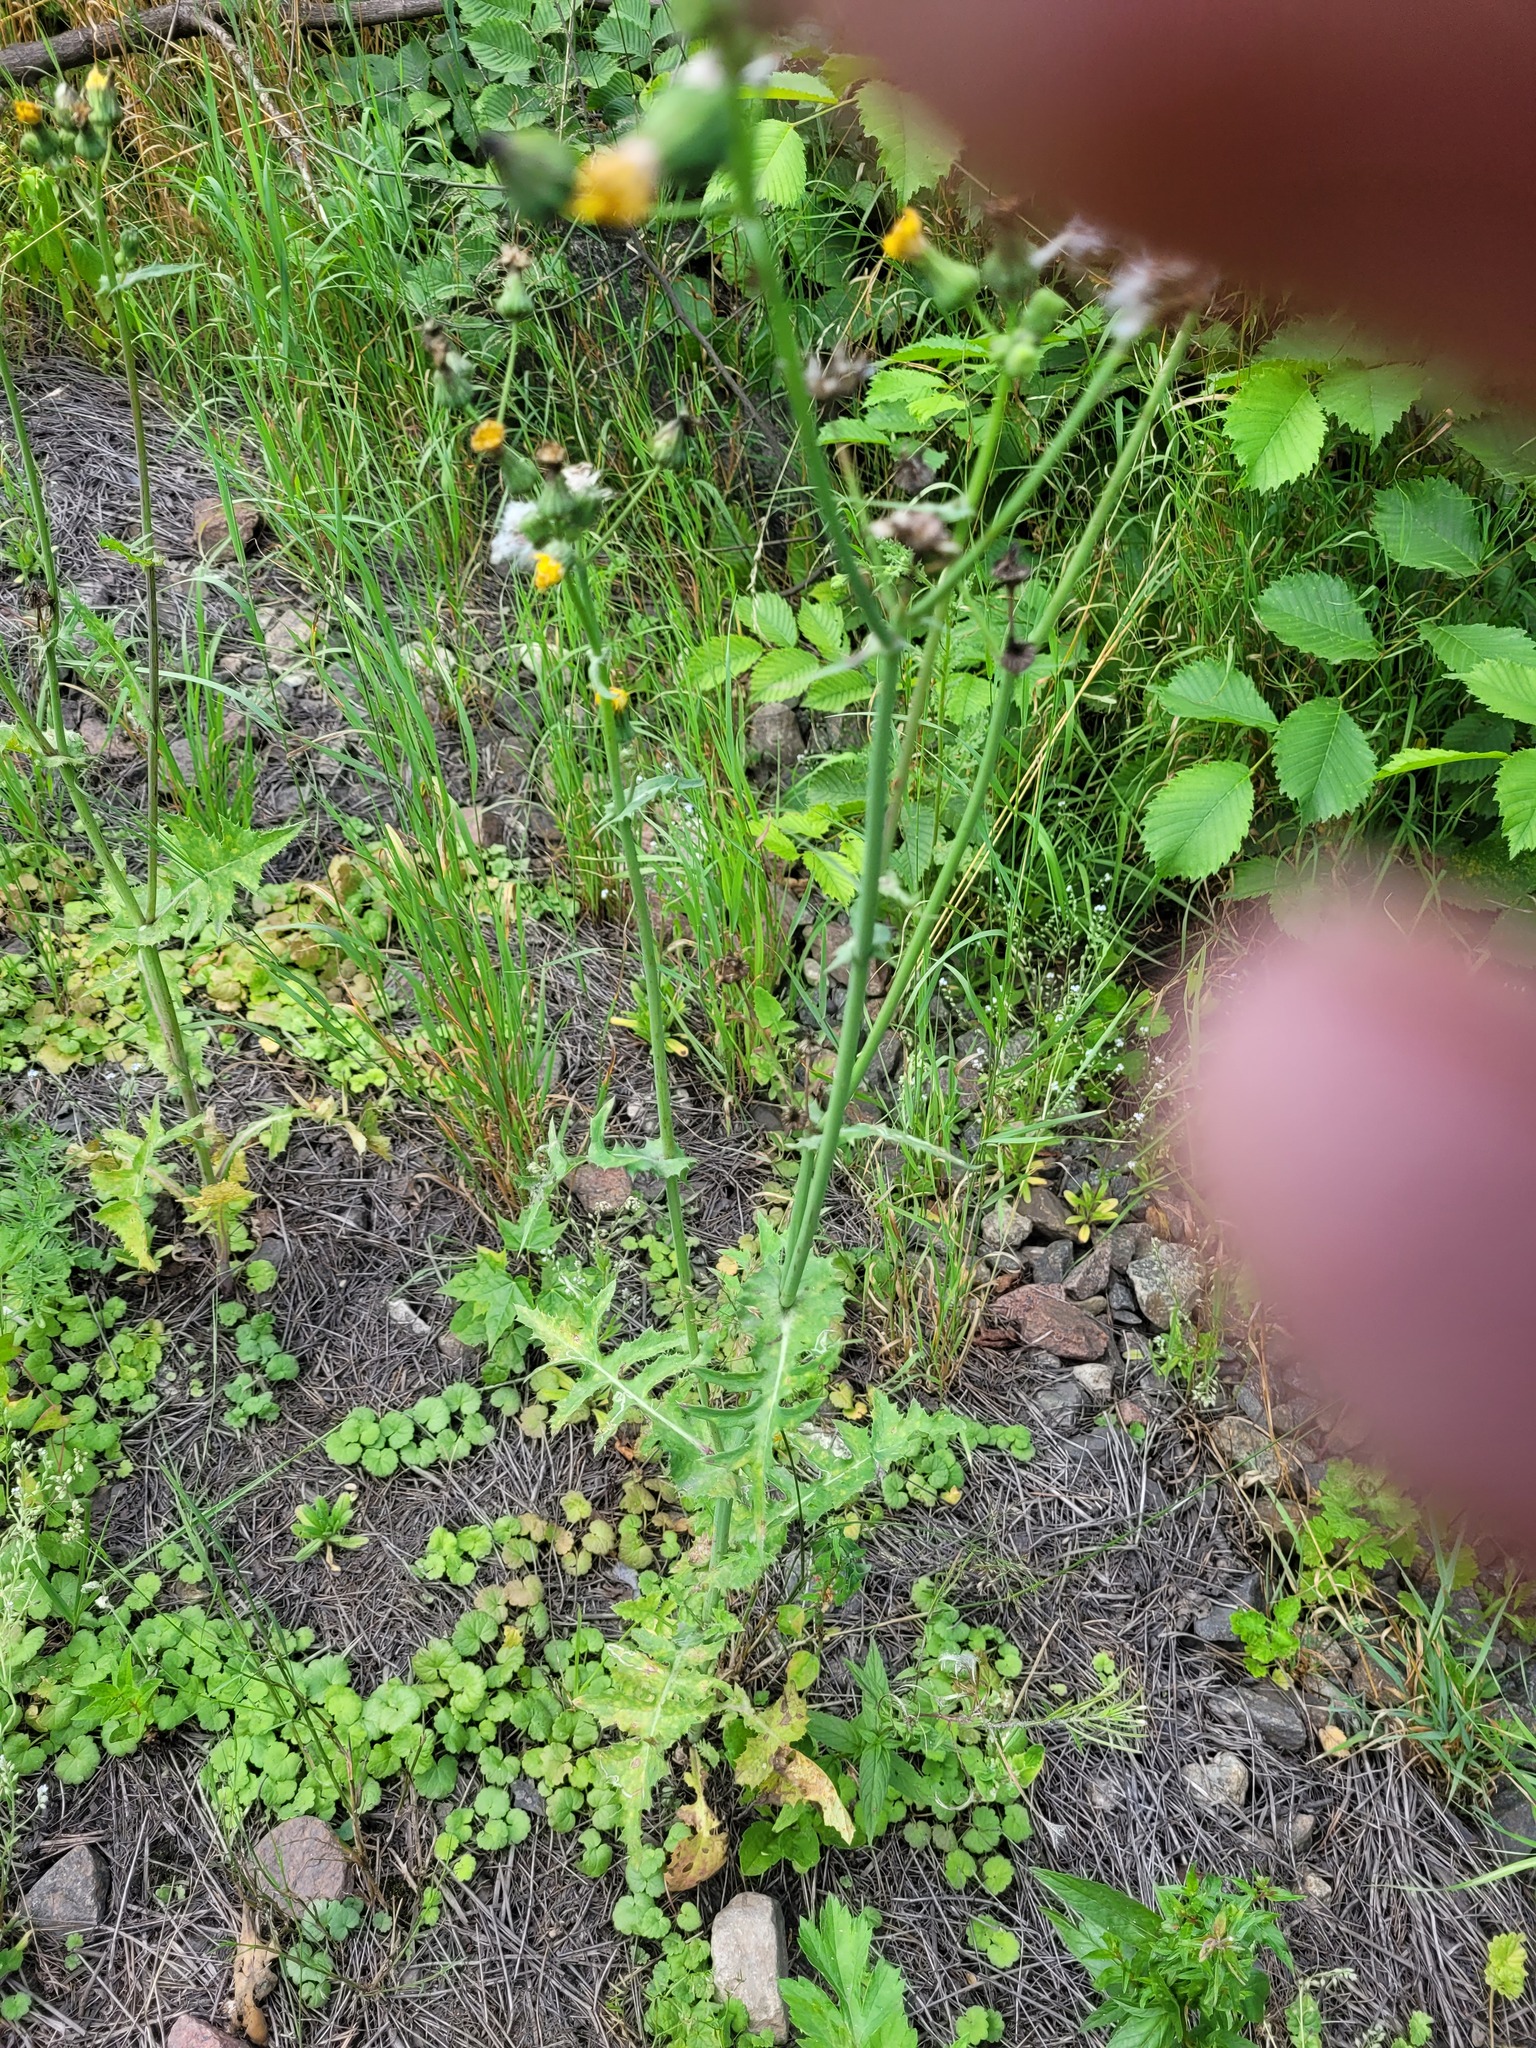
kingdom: Plantae
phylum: Tracheophyta
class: Magnoliopsida
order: Asterales
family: Asteraceae
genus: Sonchus
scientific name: Sonchus oleraceus
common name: Common sowthistle
